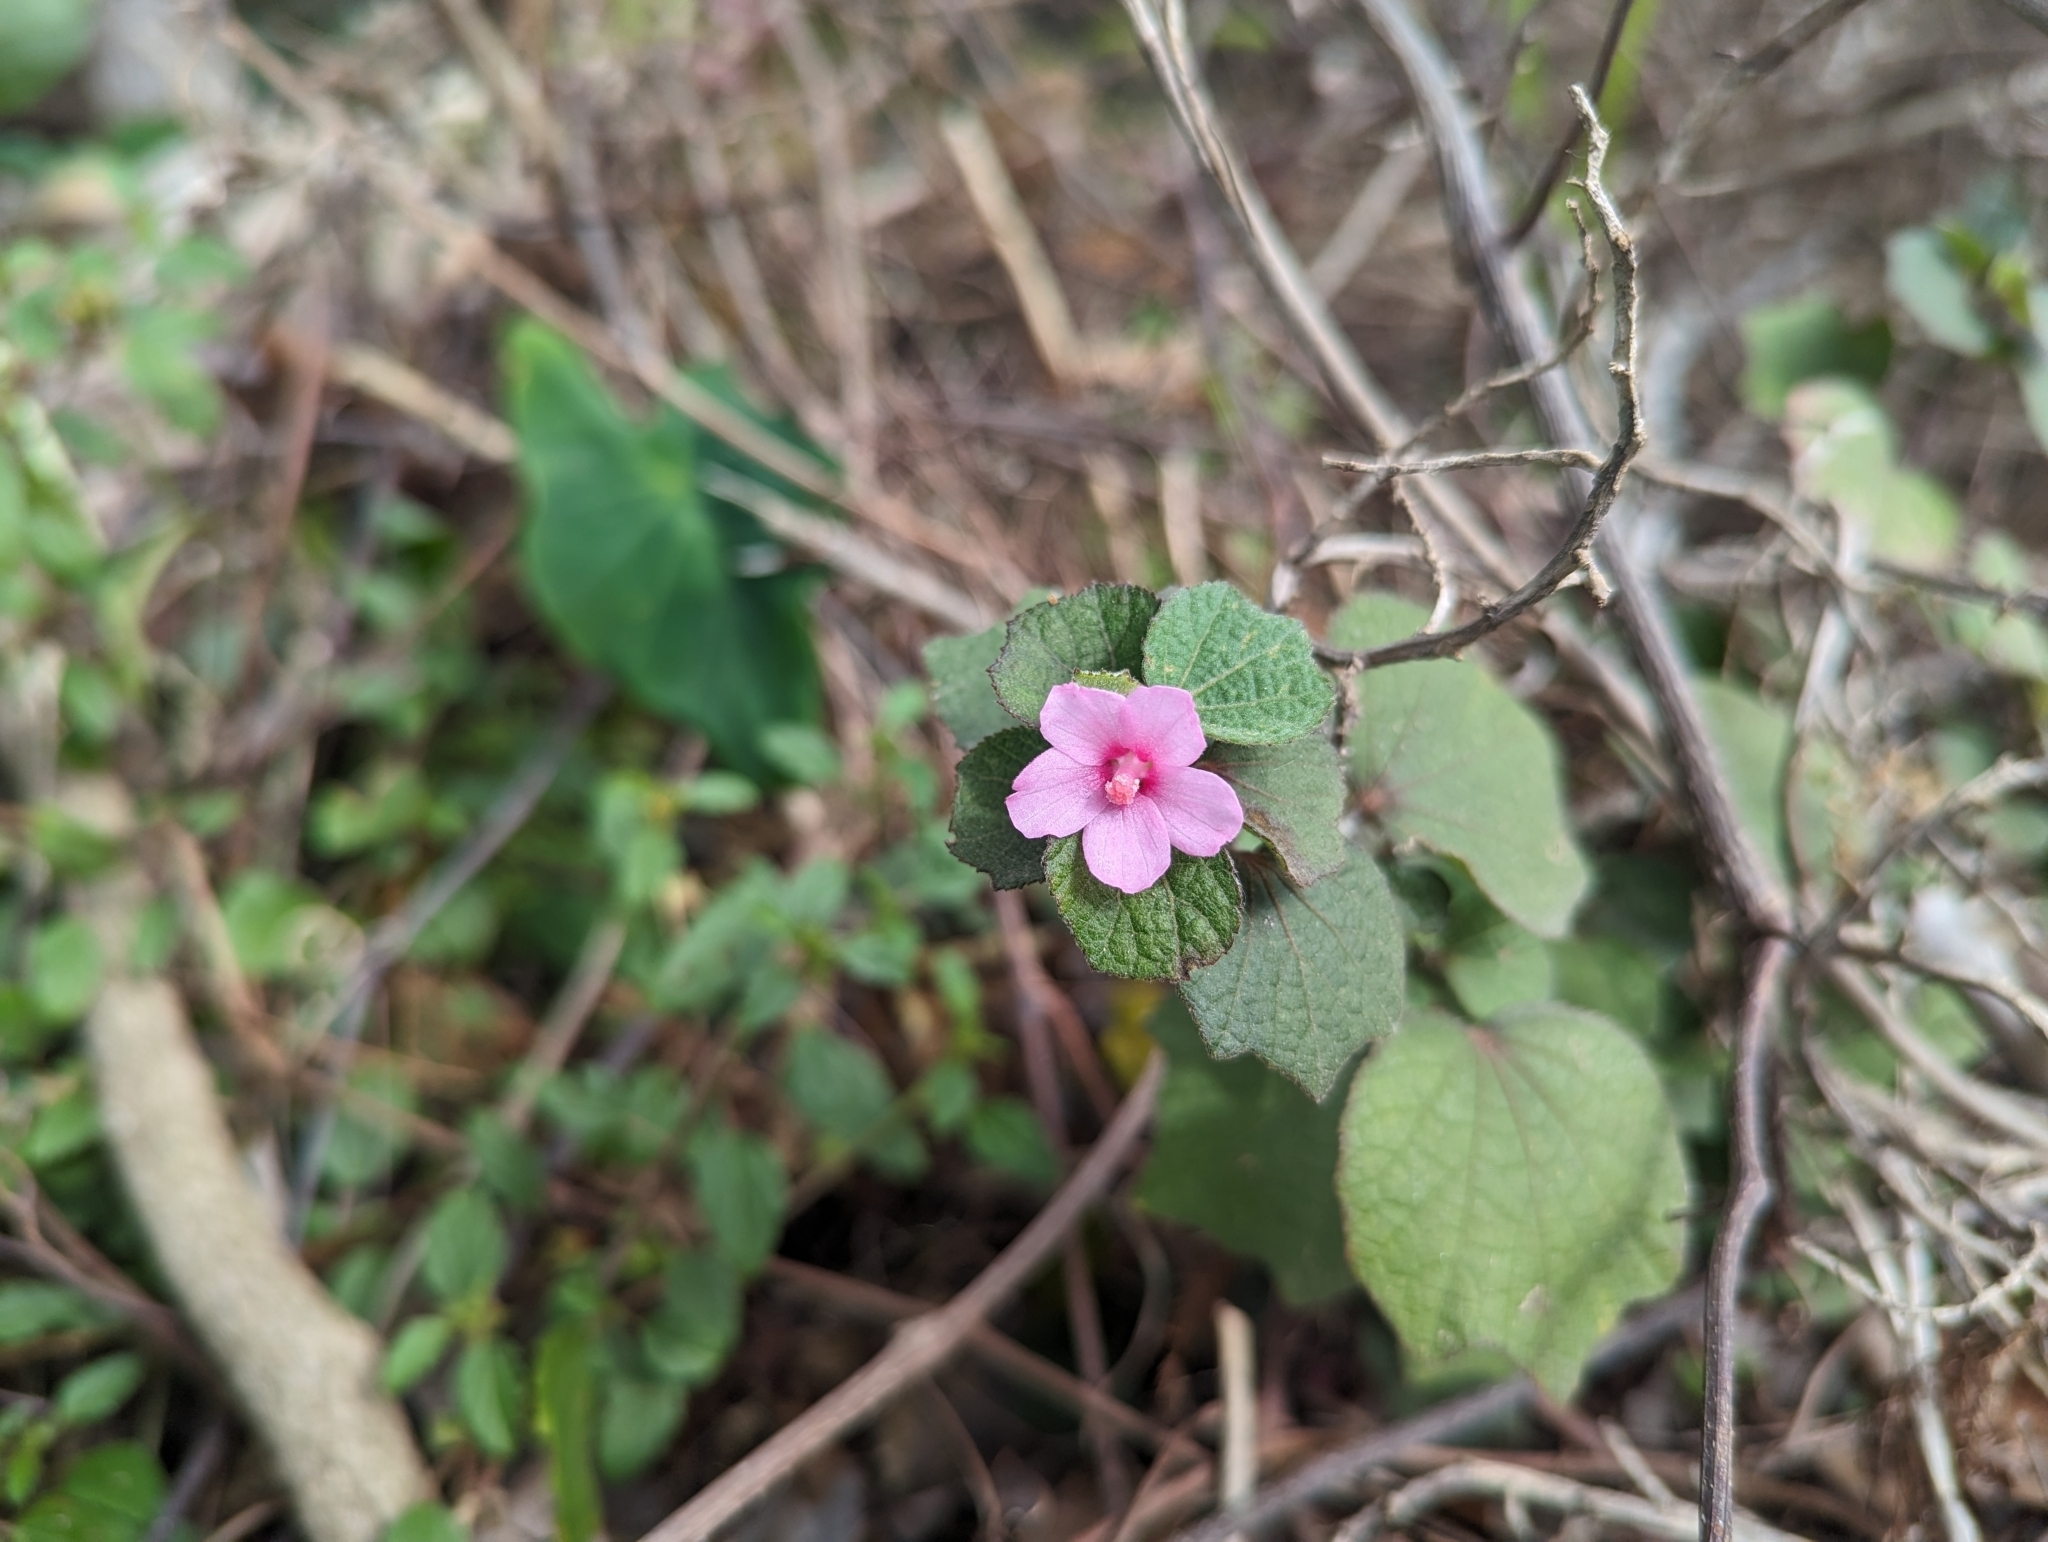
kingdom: Plantae
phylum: Tracheophyta
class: Magnoliopsida
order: Malvales
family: Malvaceae
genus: Urena
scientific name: Urena lobata
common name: Caesarweed
